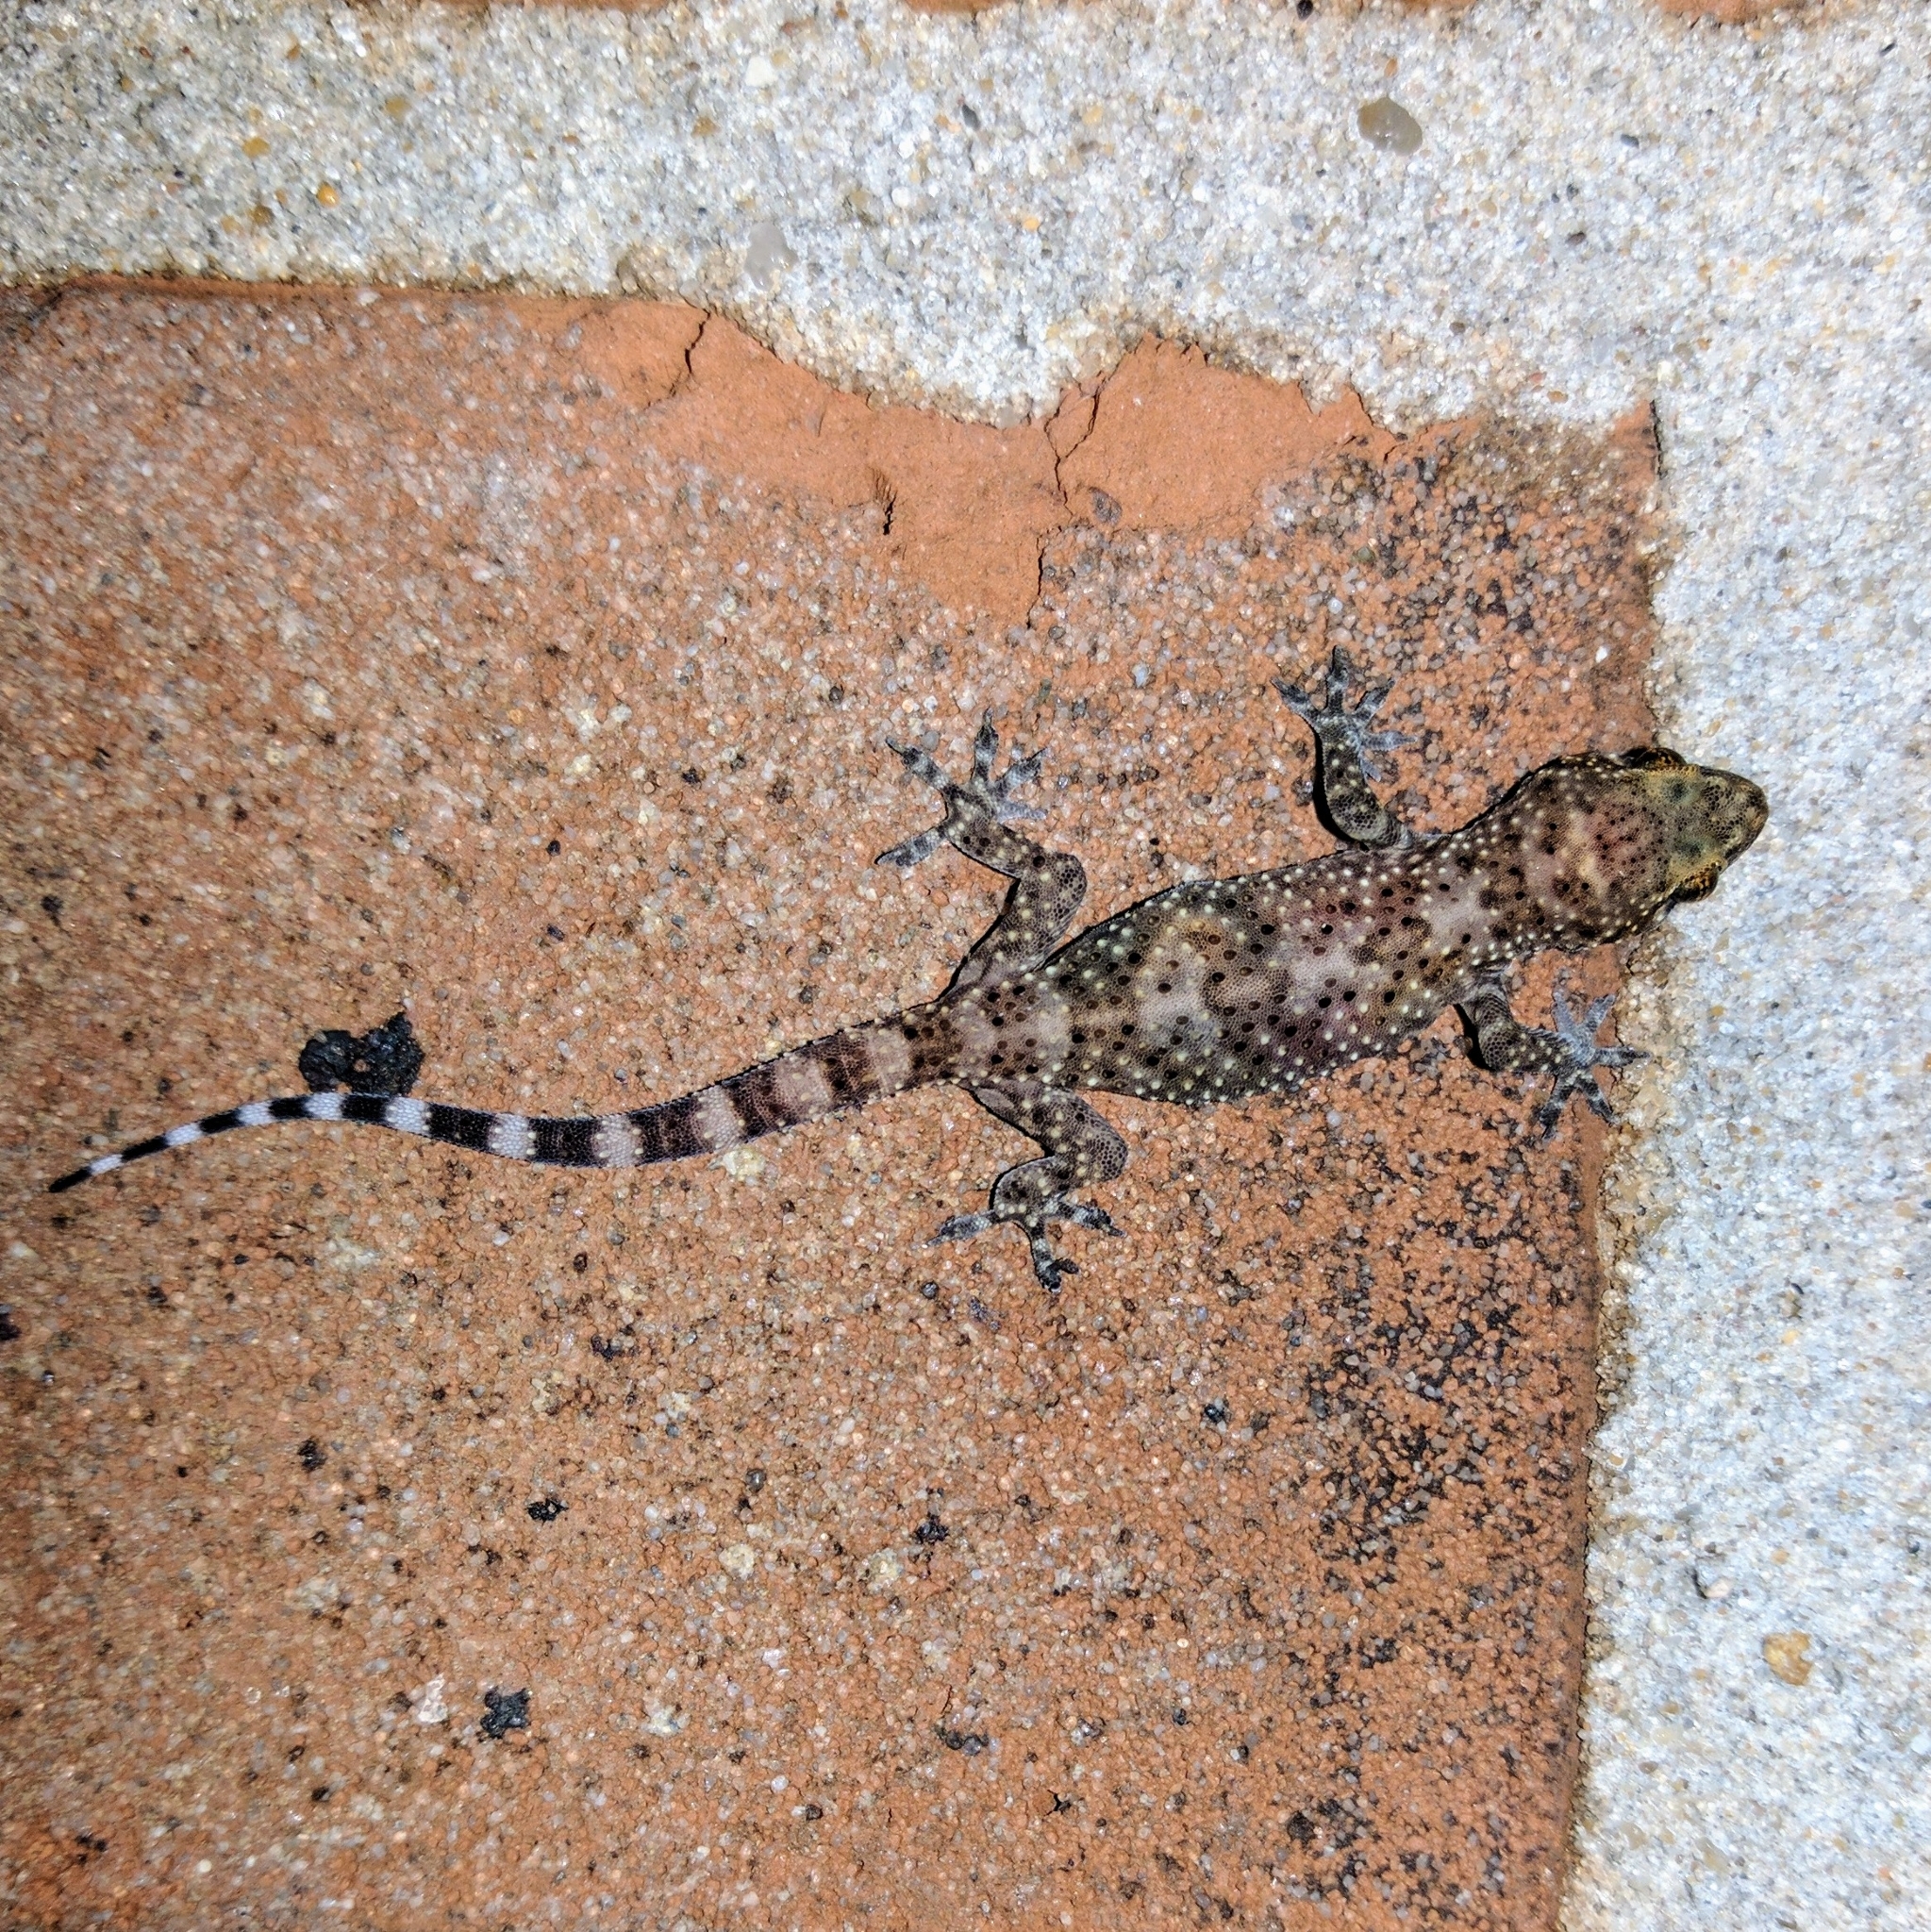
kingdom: Animalia
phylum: Chordata
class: Squamata
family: Gekkonidae
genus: Hemidactylus
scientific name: Hemidactylus turcicus
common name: Turkish gecko
